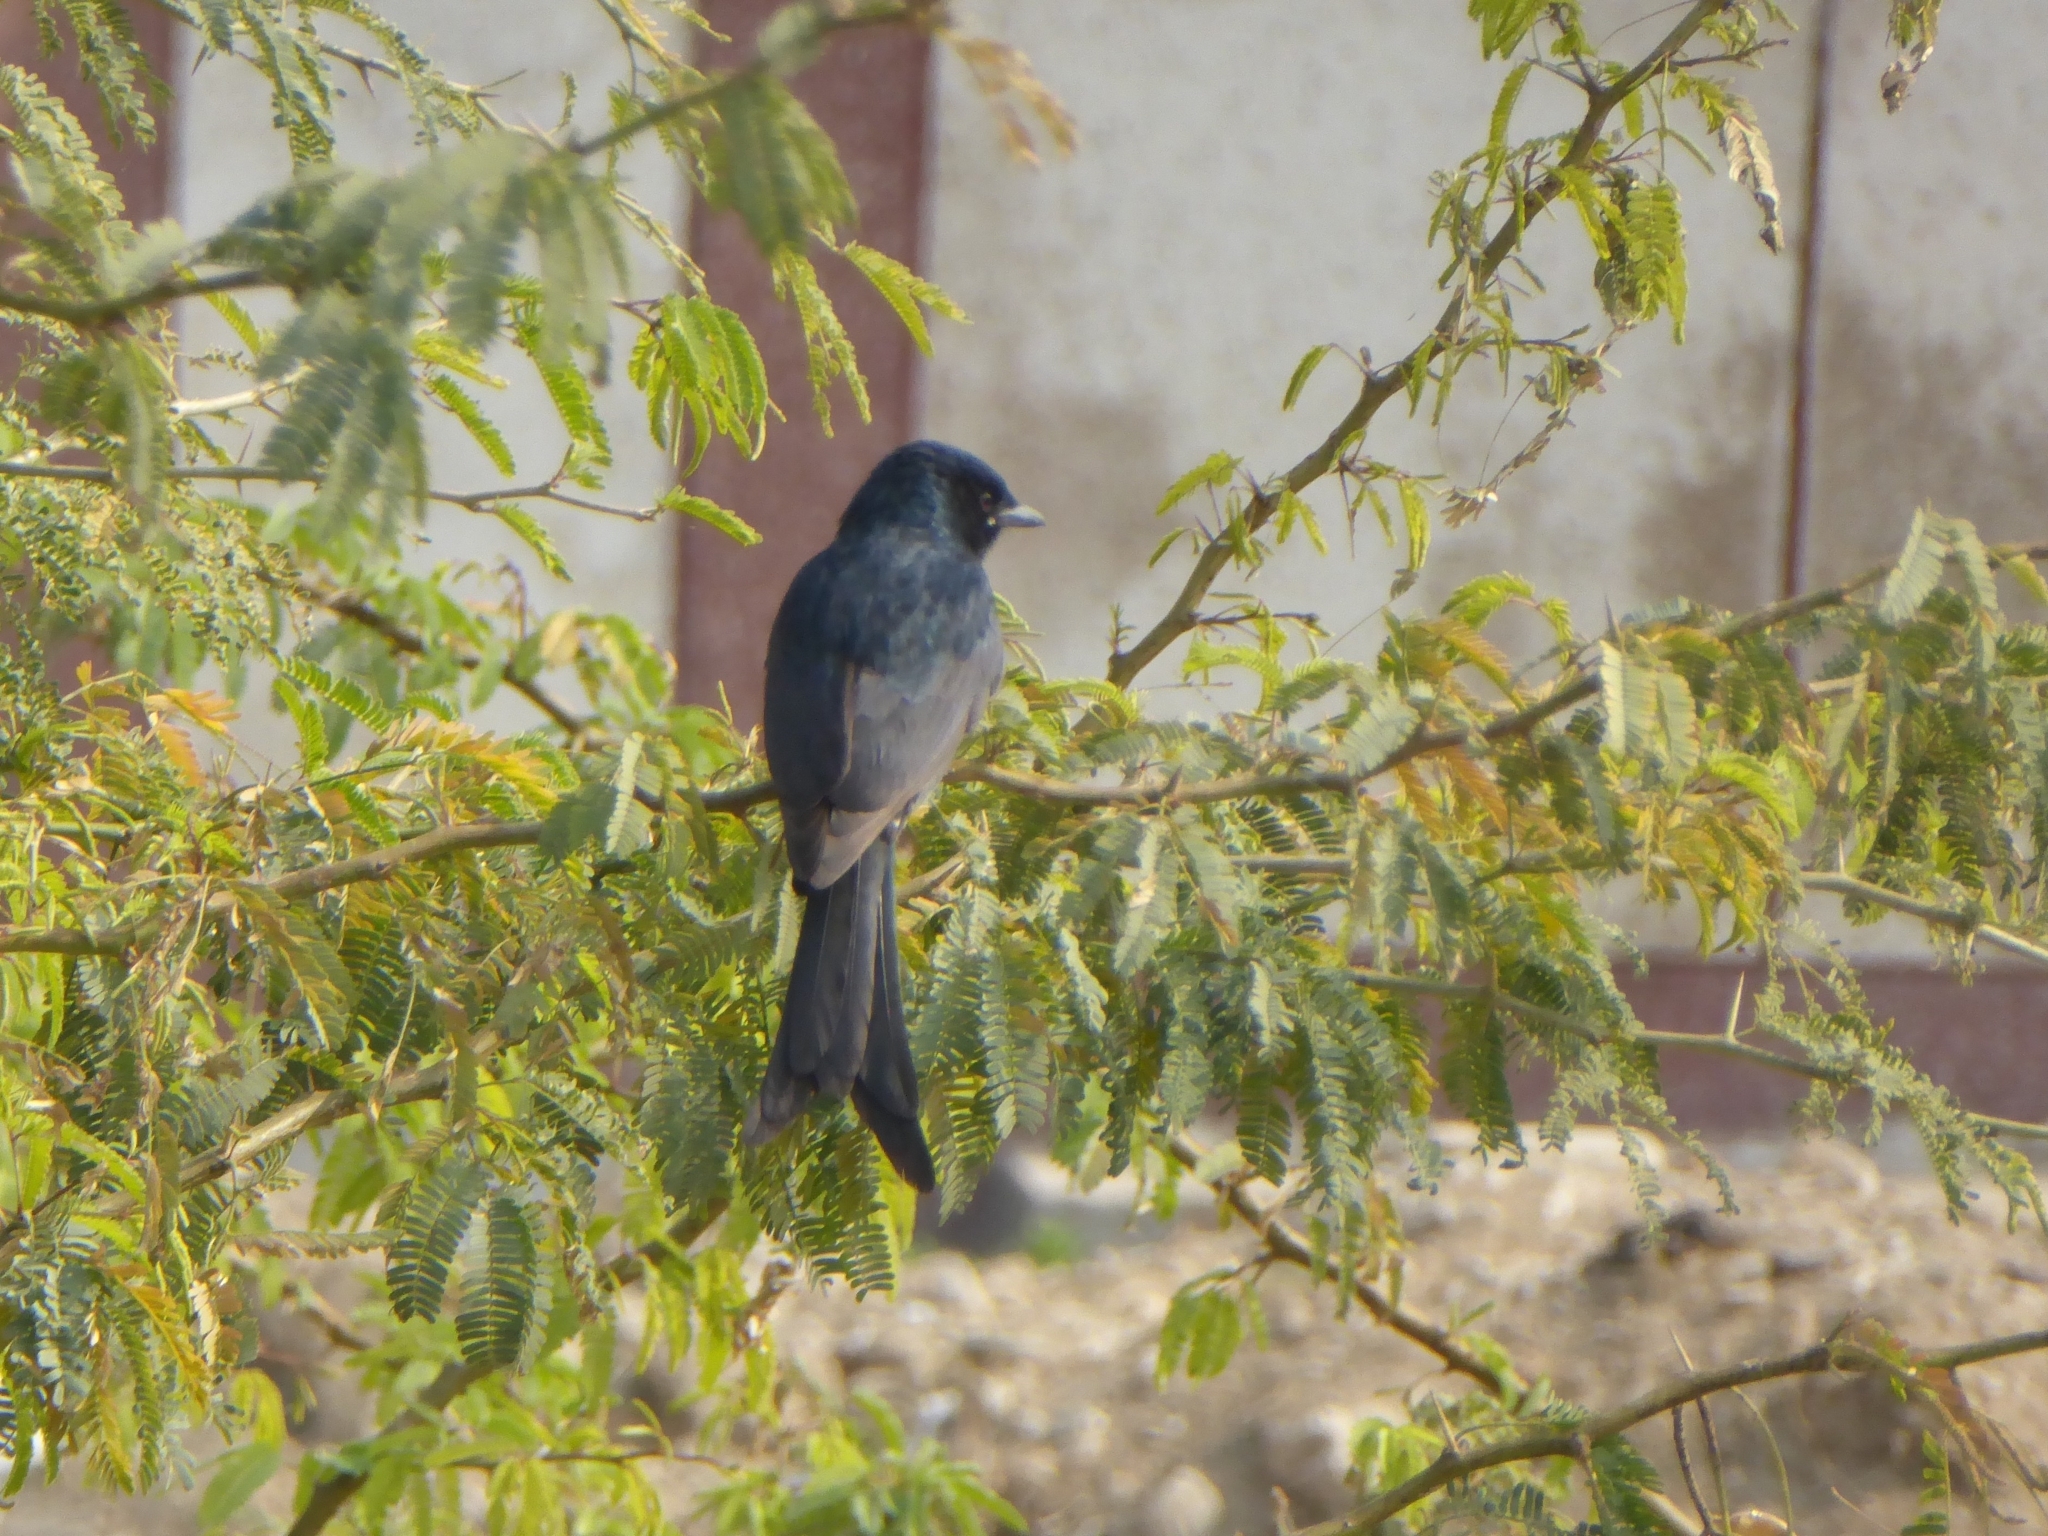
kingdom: Animalia
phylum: Chordata
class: Aves
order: Passeriformes
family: Dicruridae
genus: Dicrurus
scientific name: Dicrurus macrocercus
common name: Black drongo
